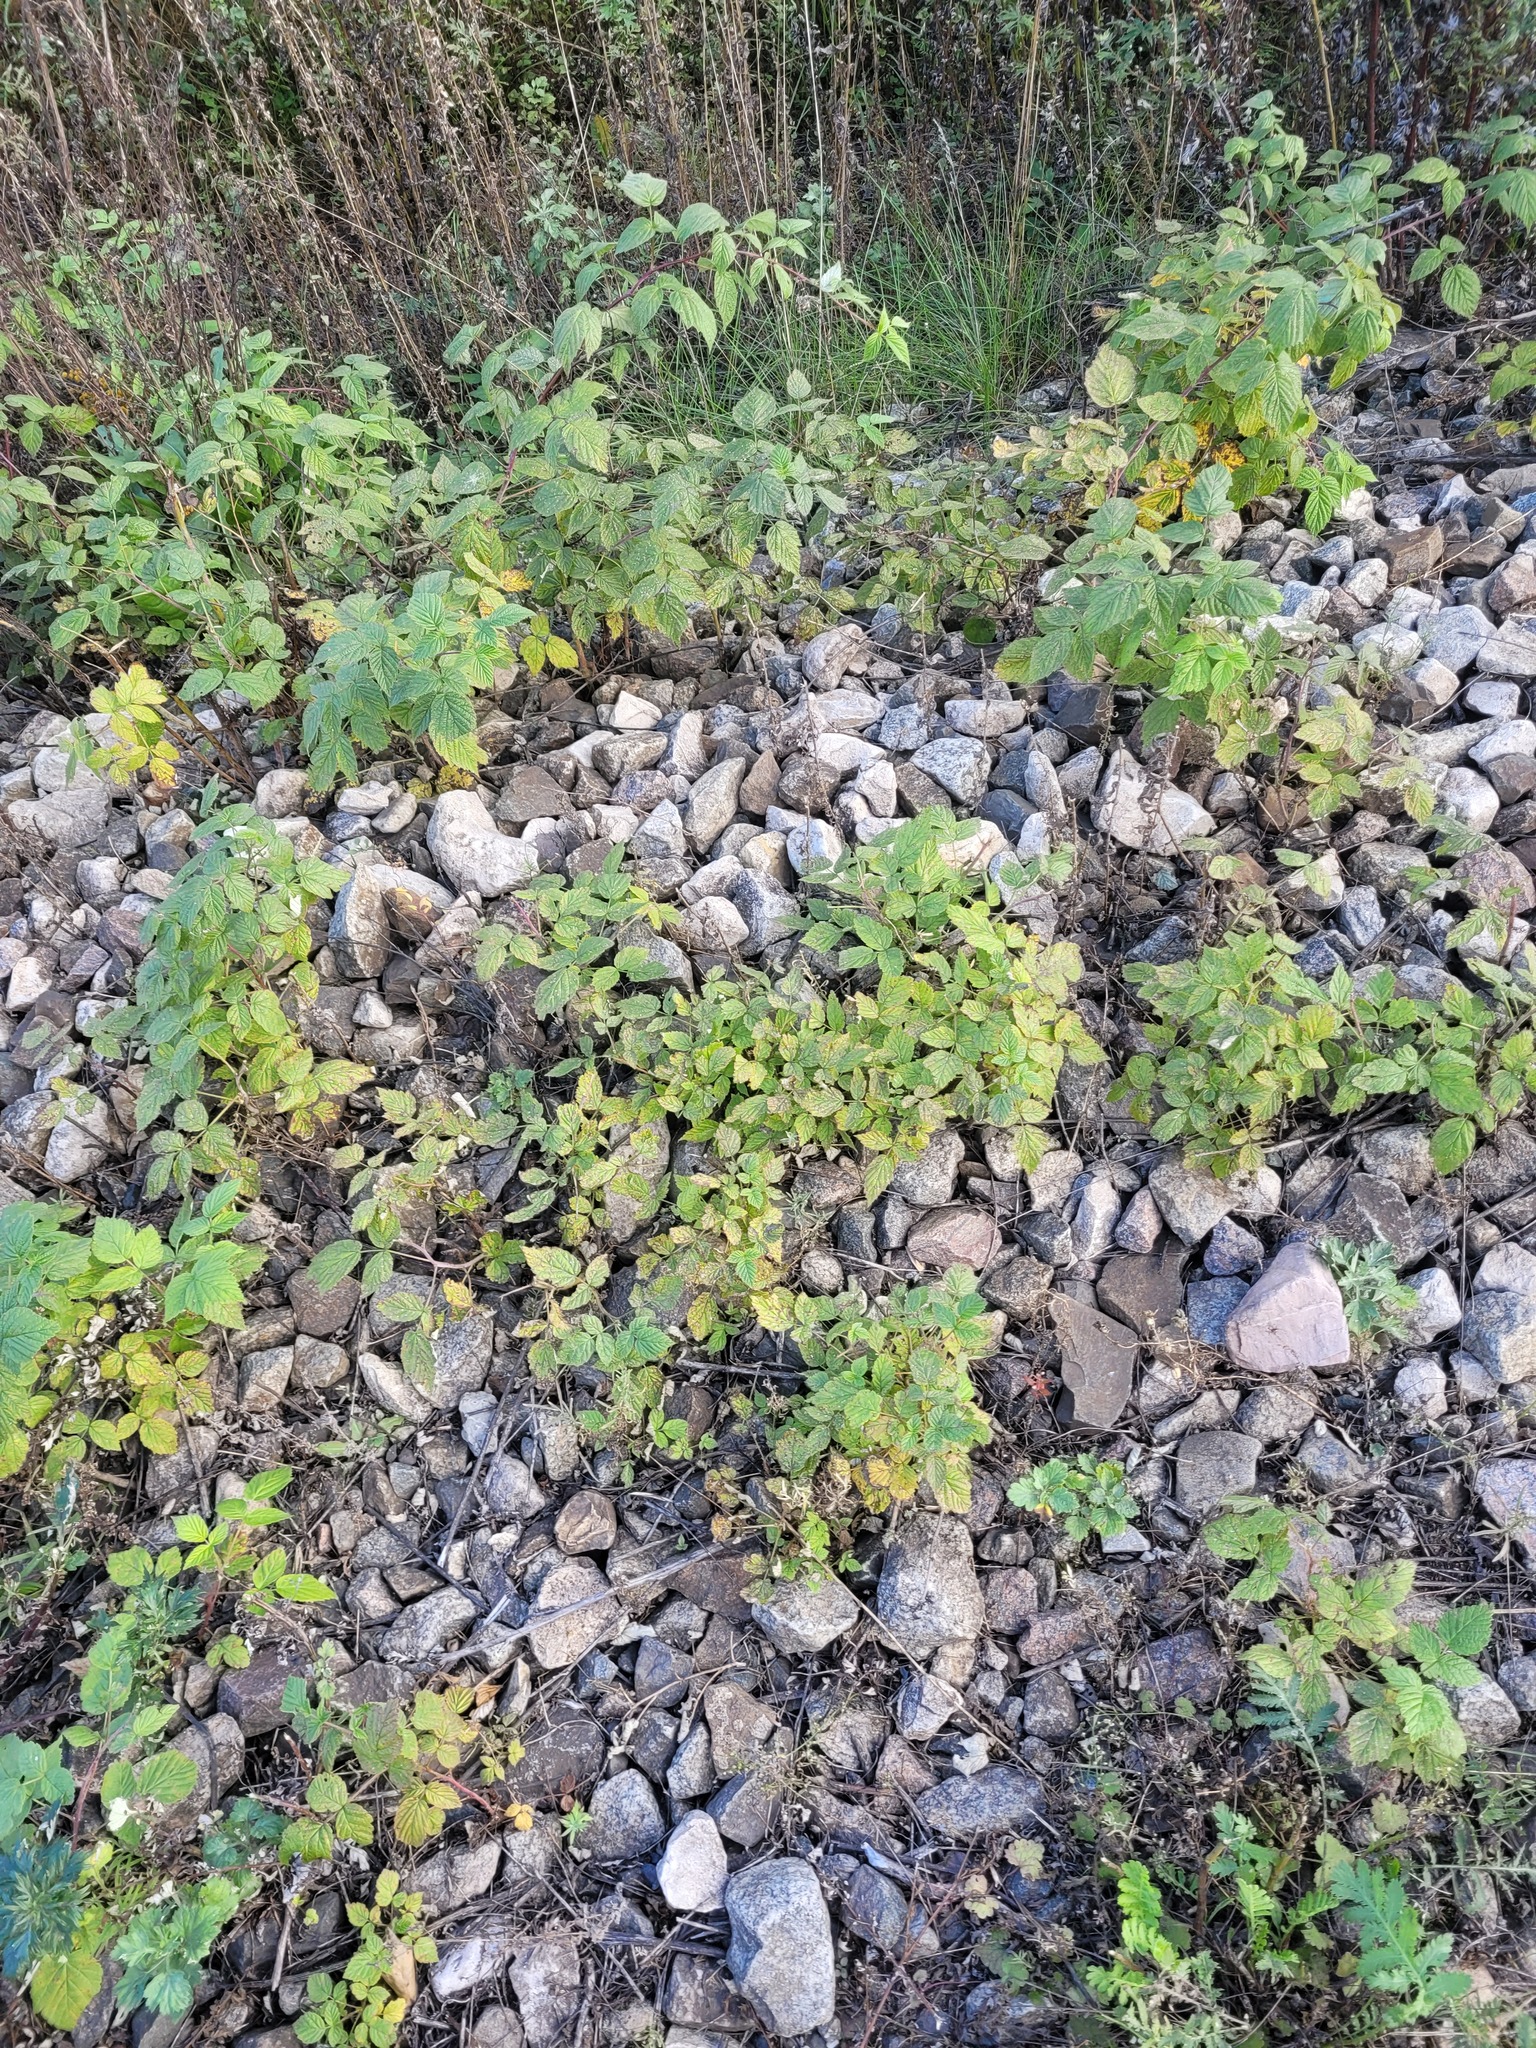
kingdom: Plantae
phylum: Tracheophyta
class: Magnoliopsida
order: Rosales
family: Rosaceae
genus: Rubus
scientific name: Rubus idaeus
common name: Raspberry
